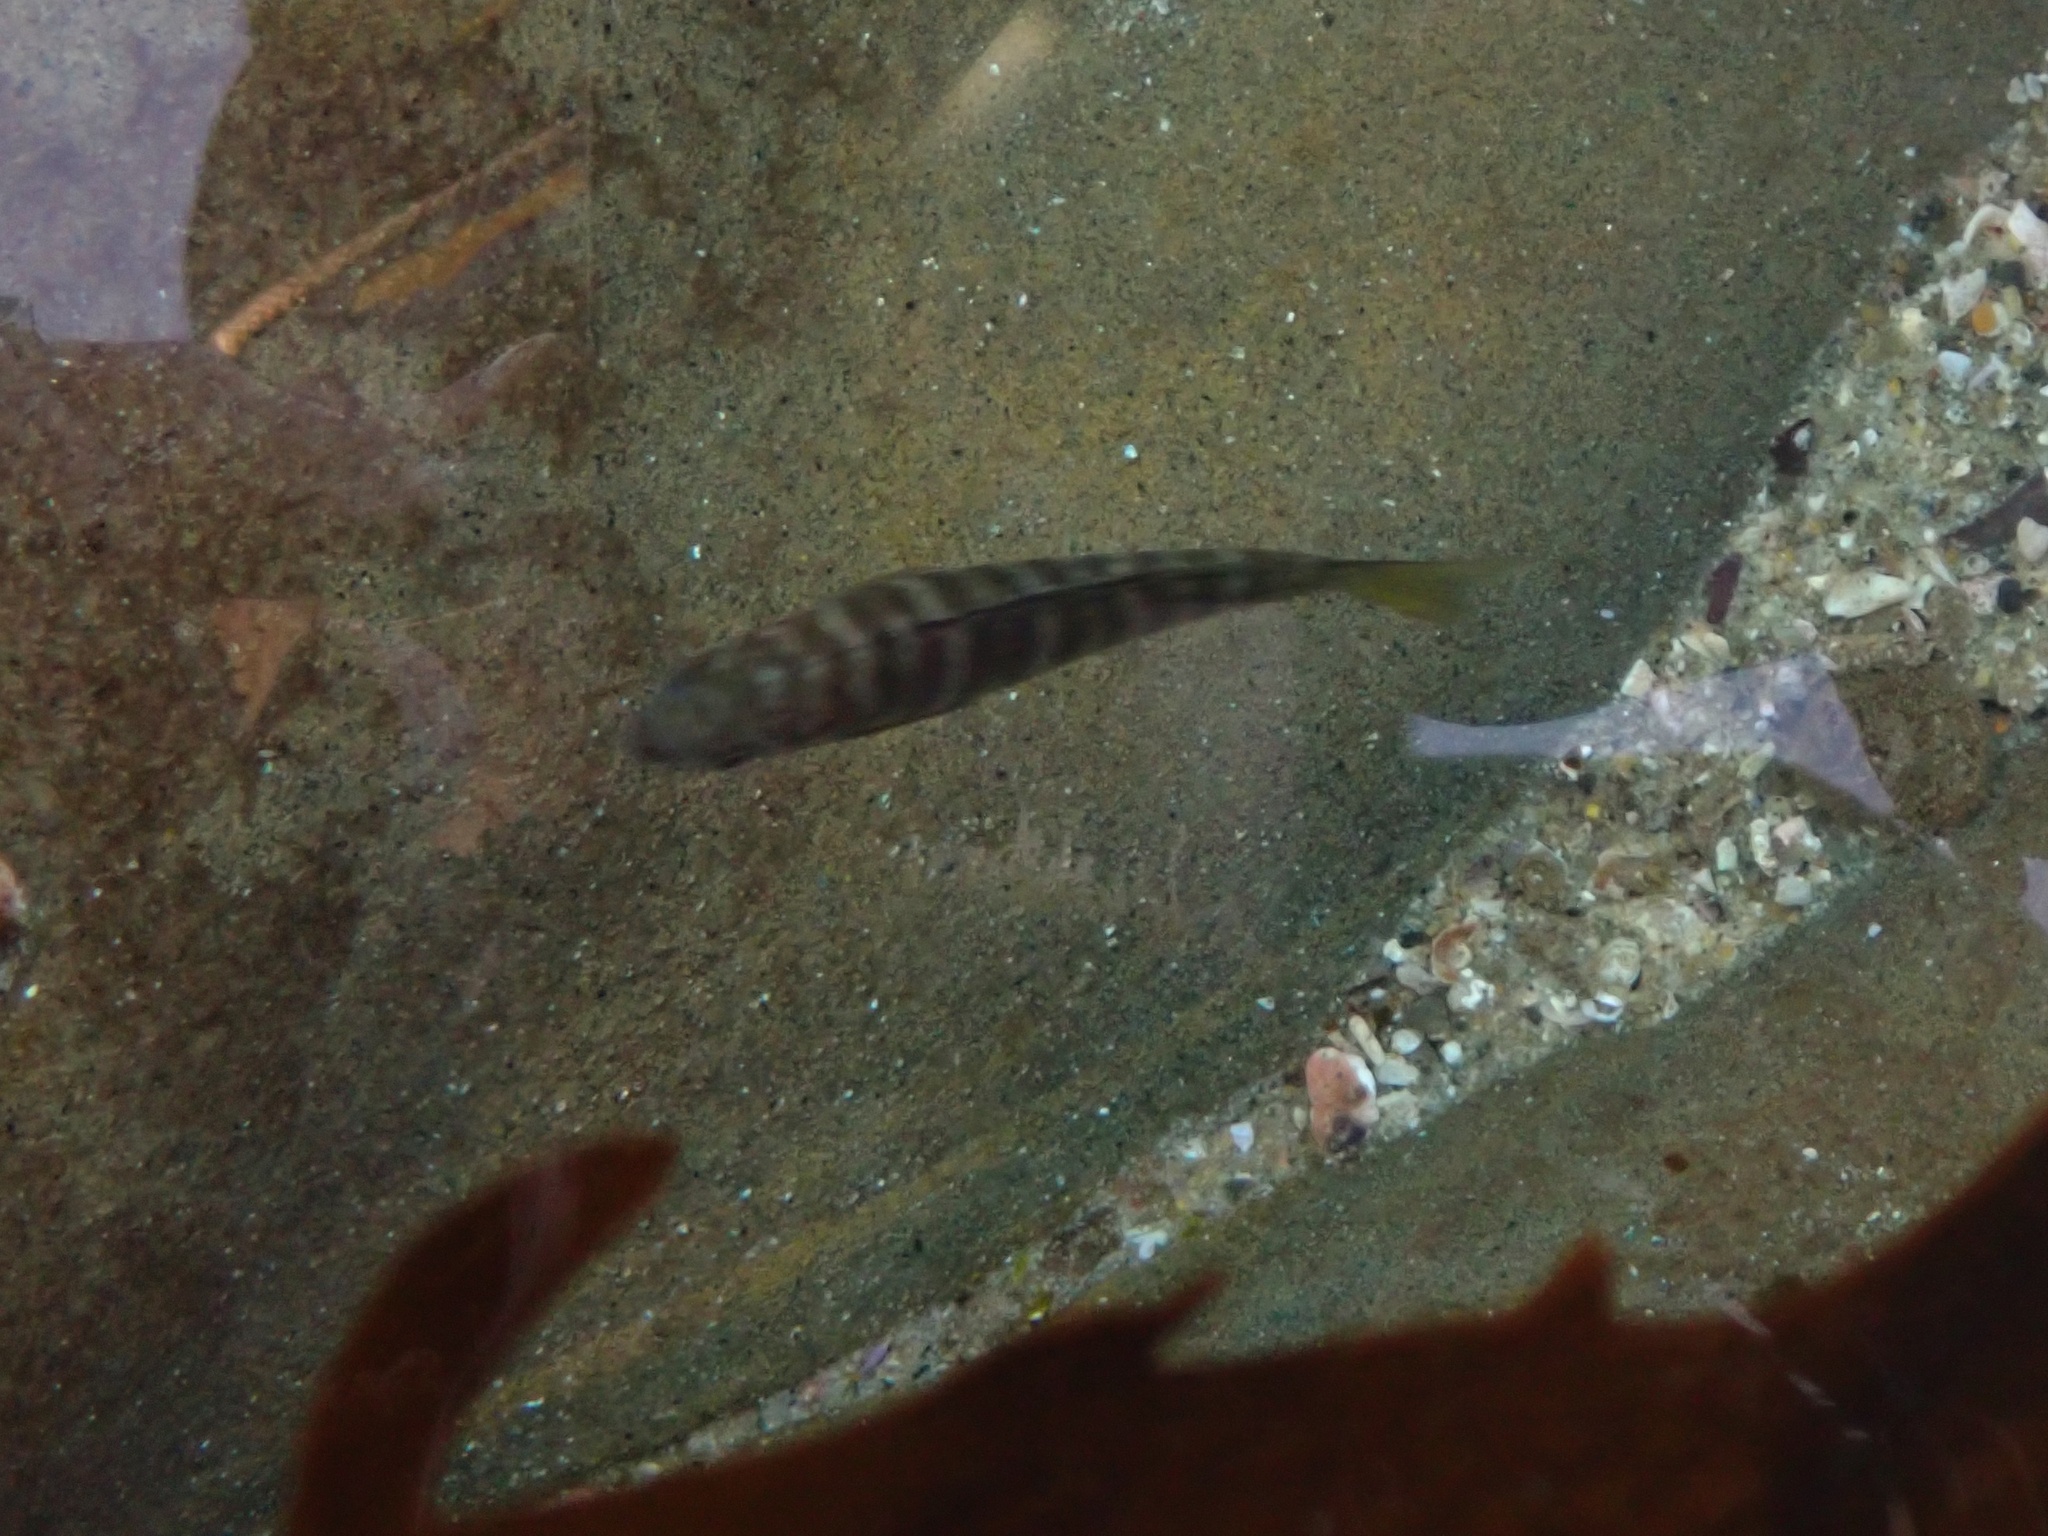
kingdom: Animalia
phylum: Chordata
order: Perciformes
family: Kyphosidae
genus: Kyphosus
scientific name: Kyphosus azureus
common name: Perch
